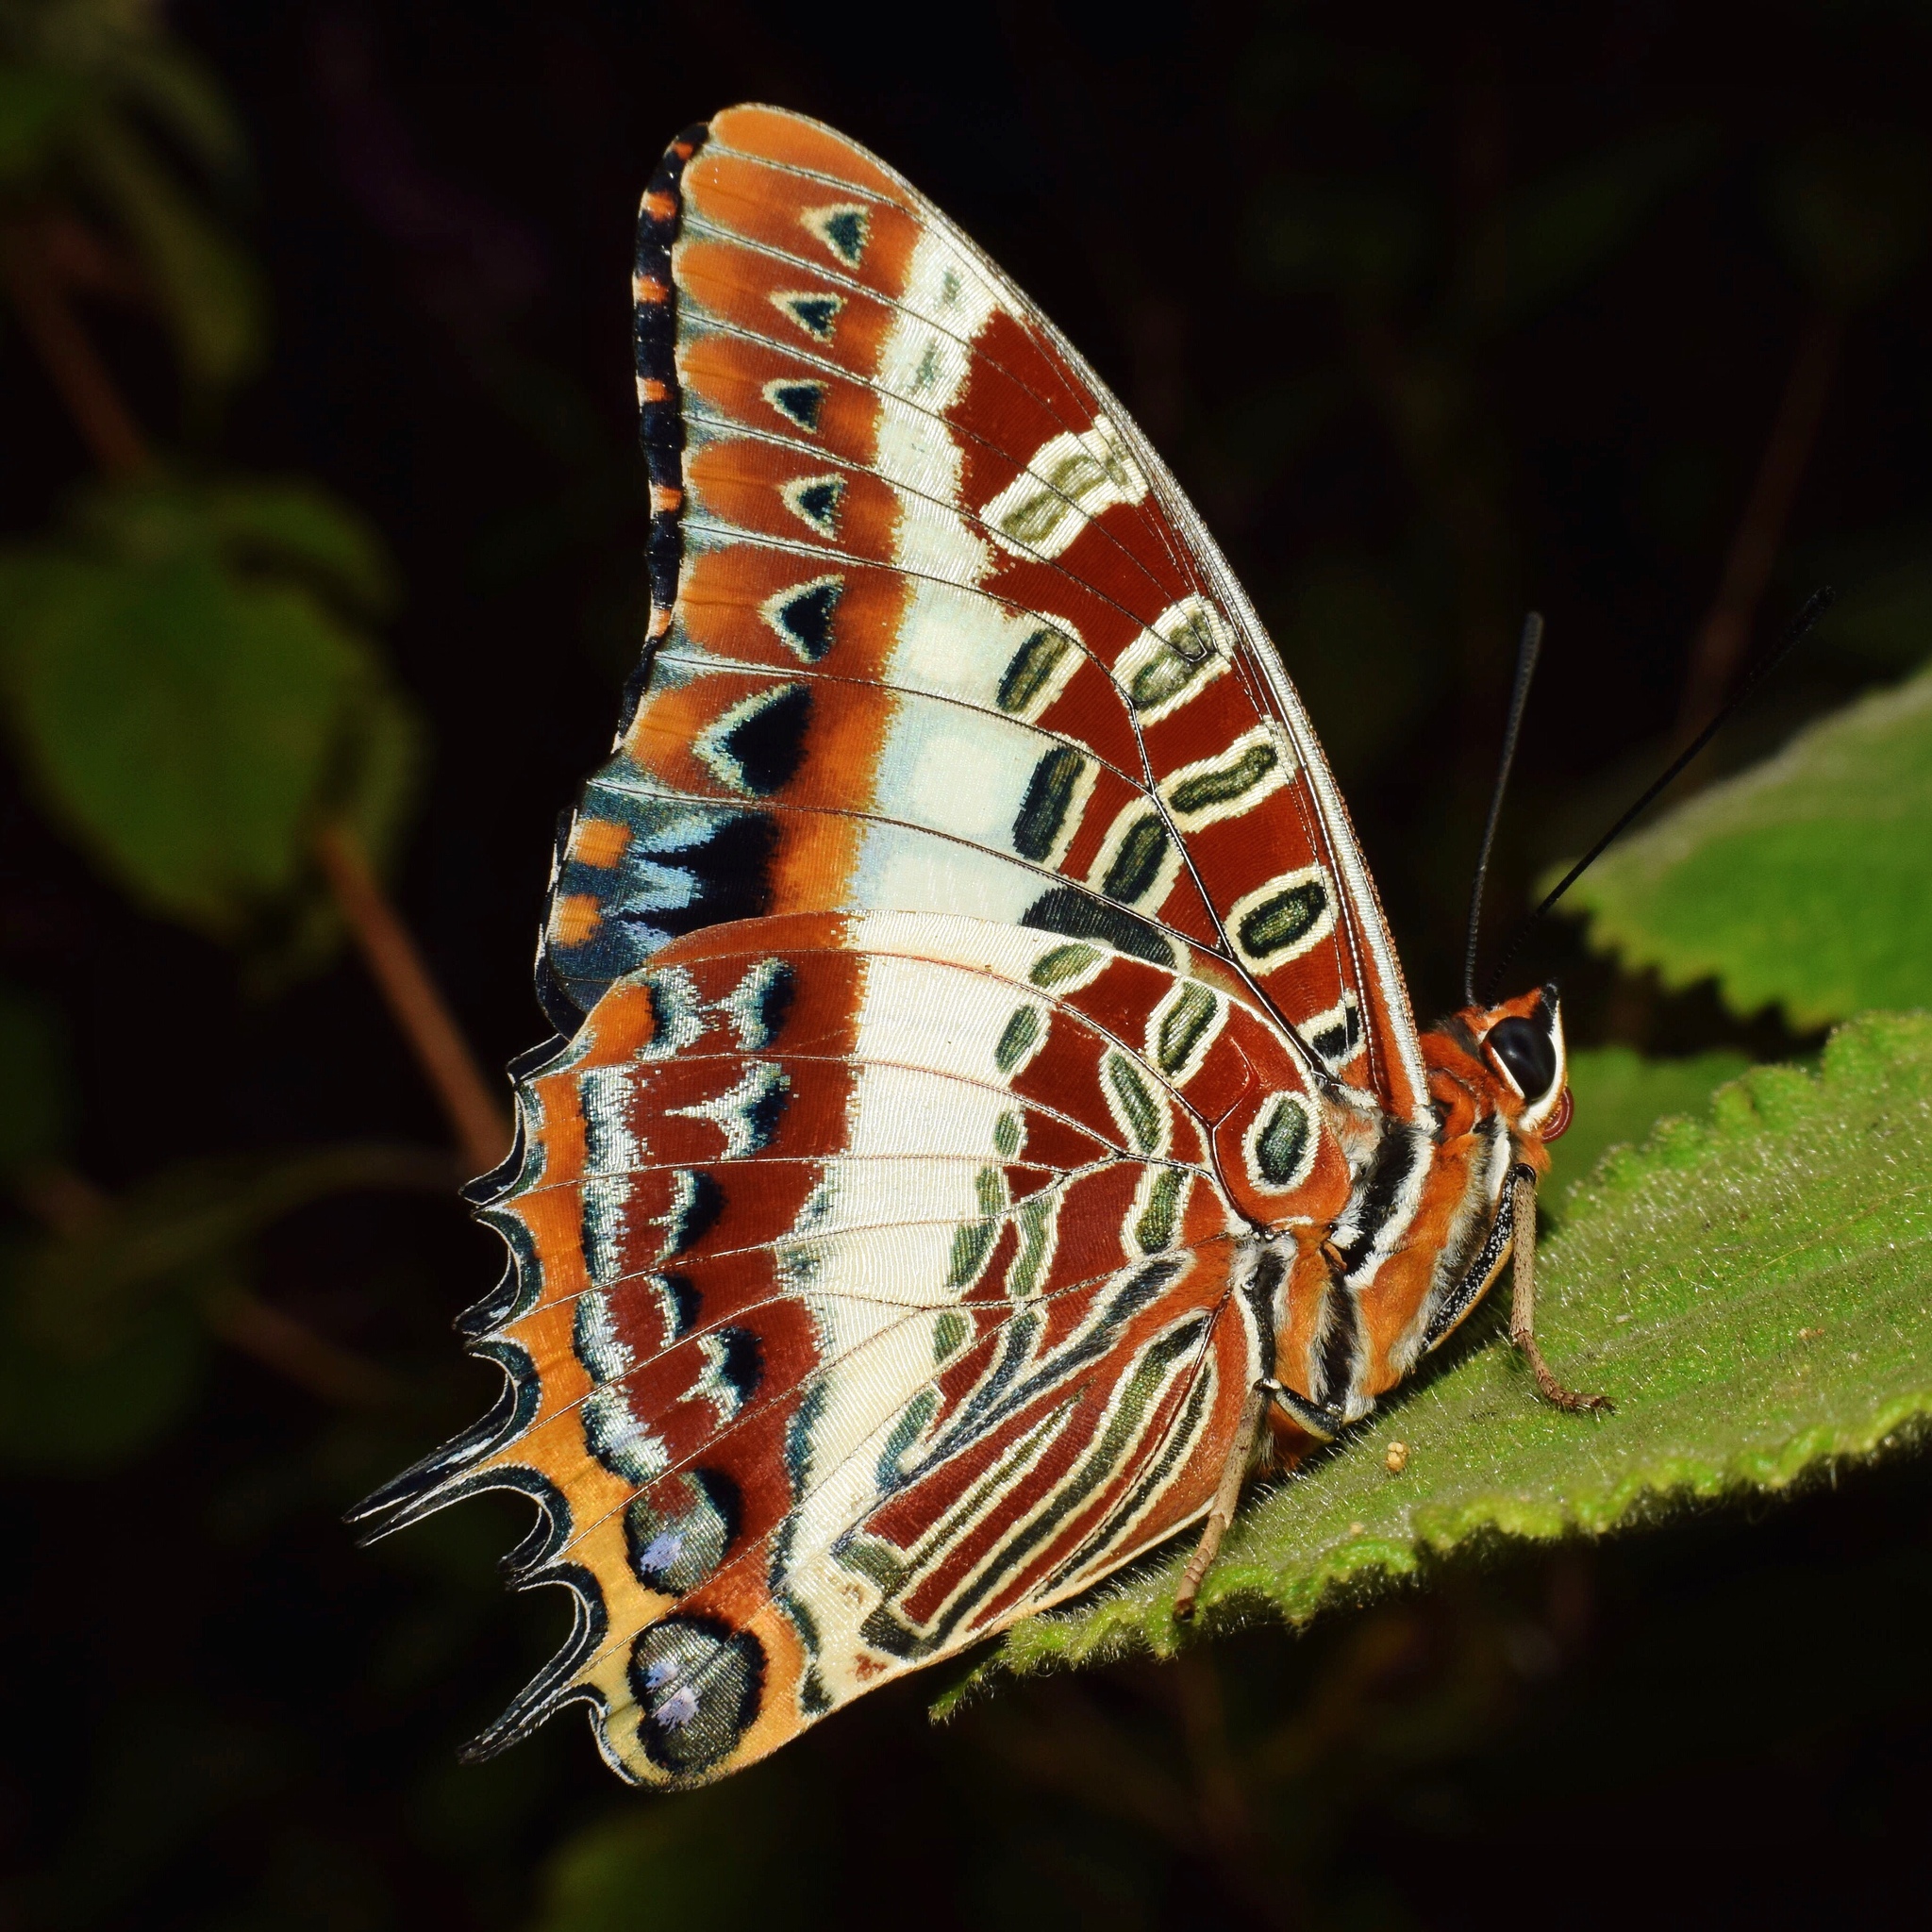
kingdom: Animalia
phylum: Arthropoda
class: Insecta
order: Lepidoptera
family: Nymphalidae
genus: Charaxes
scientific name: Charaxes brutus
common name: White-barred charaxes
